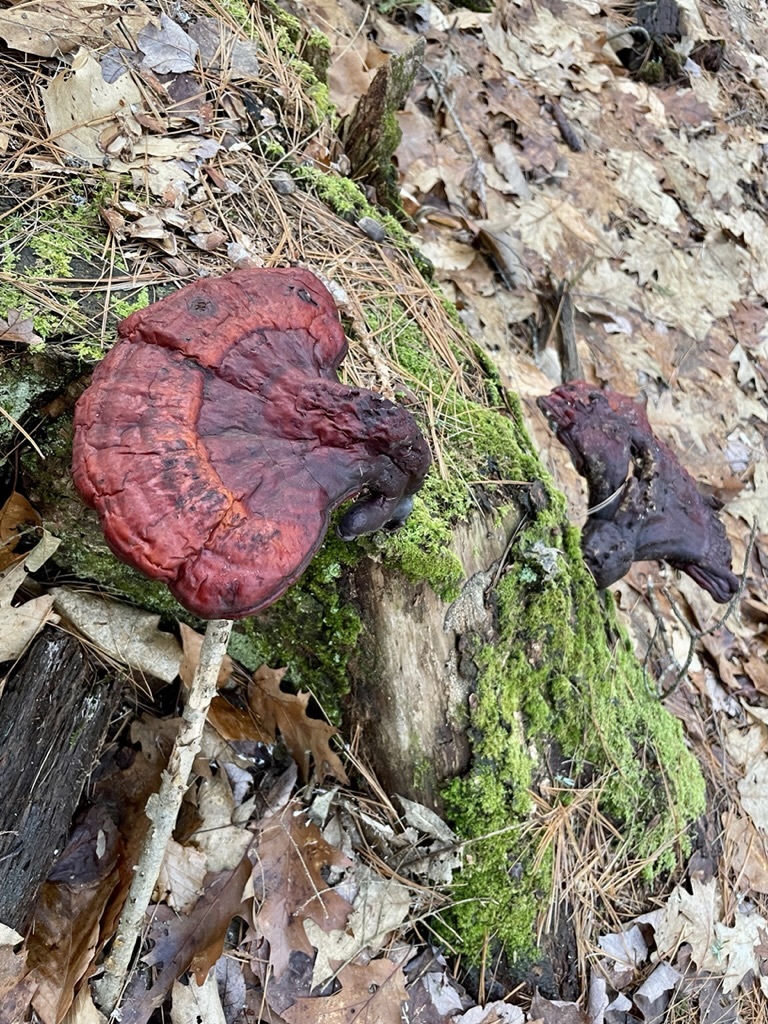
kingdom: Fungi
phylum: Basidiomycota
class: Agaricomycetes
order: Polyporales
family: Polyporaceae
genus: Ganoderma
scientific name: Ganoderma tsugae
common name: Hemlock varnish shelf
